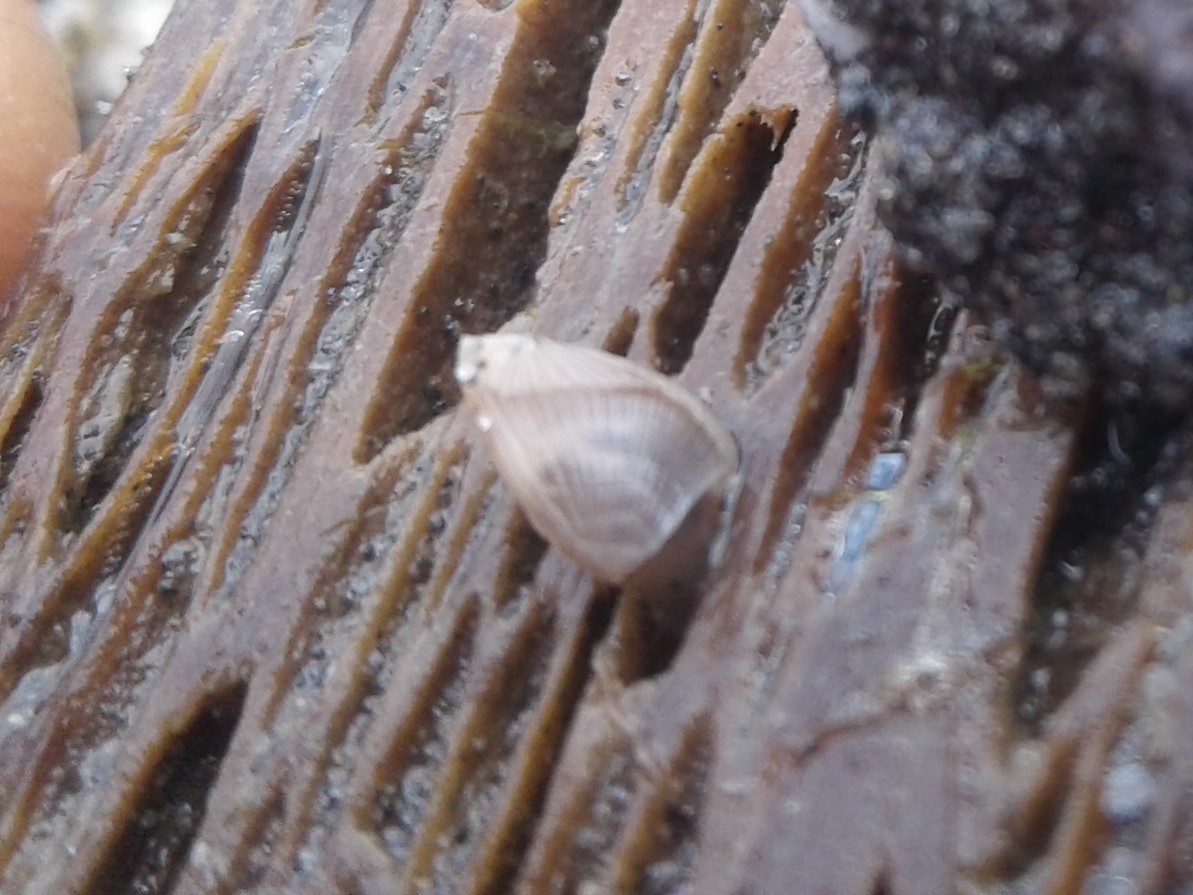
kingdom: Animalia
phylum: Arthropoda
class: Maxillopoda
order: Pedunculata
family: Lepadidae
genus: Lepas
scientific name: Lepas pectinata
